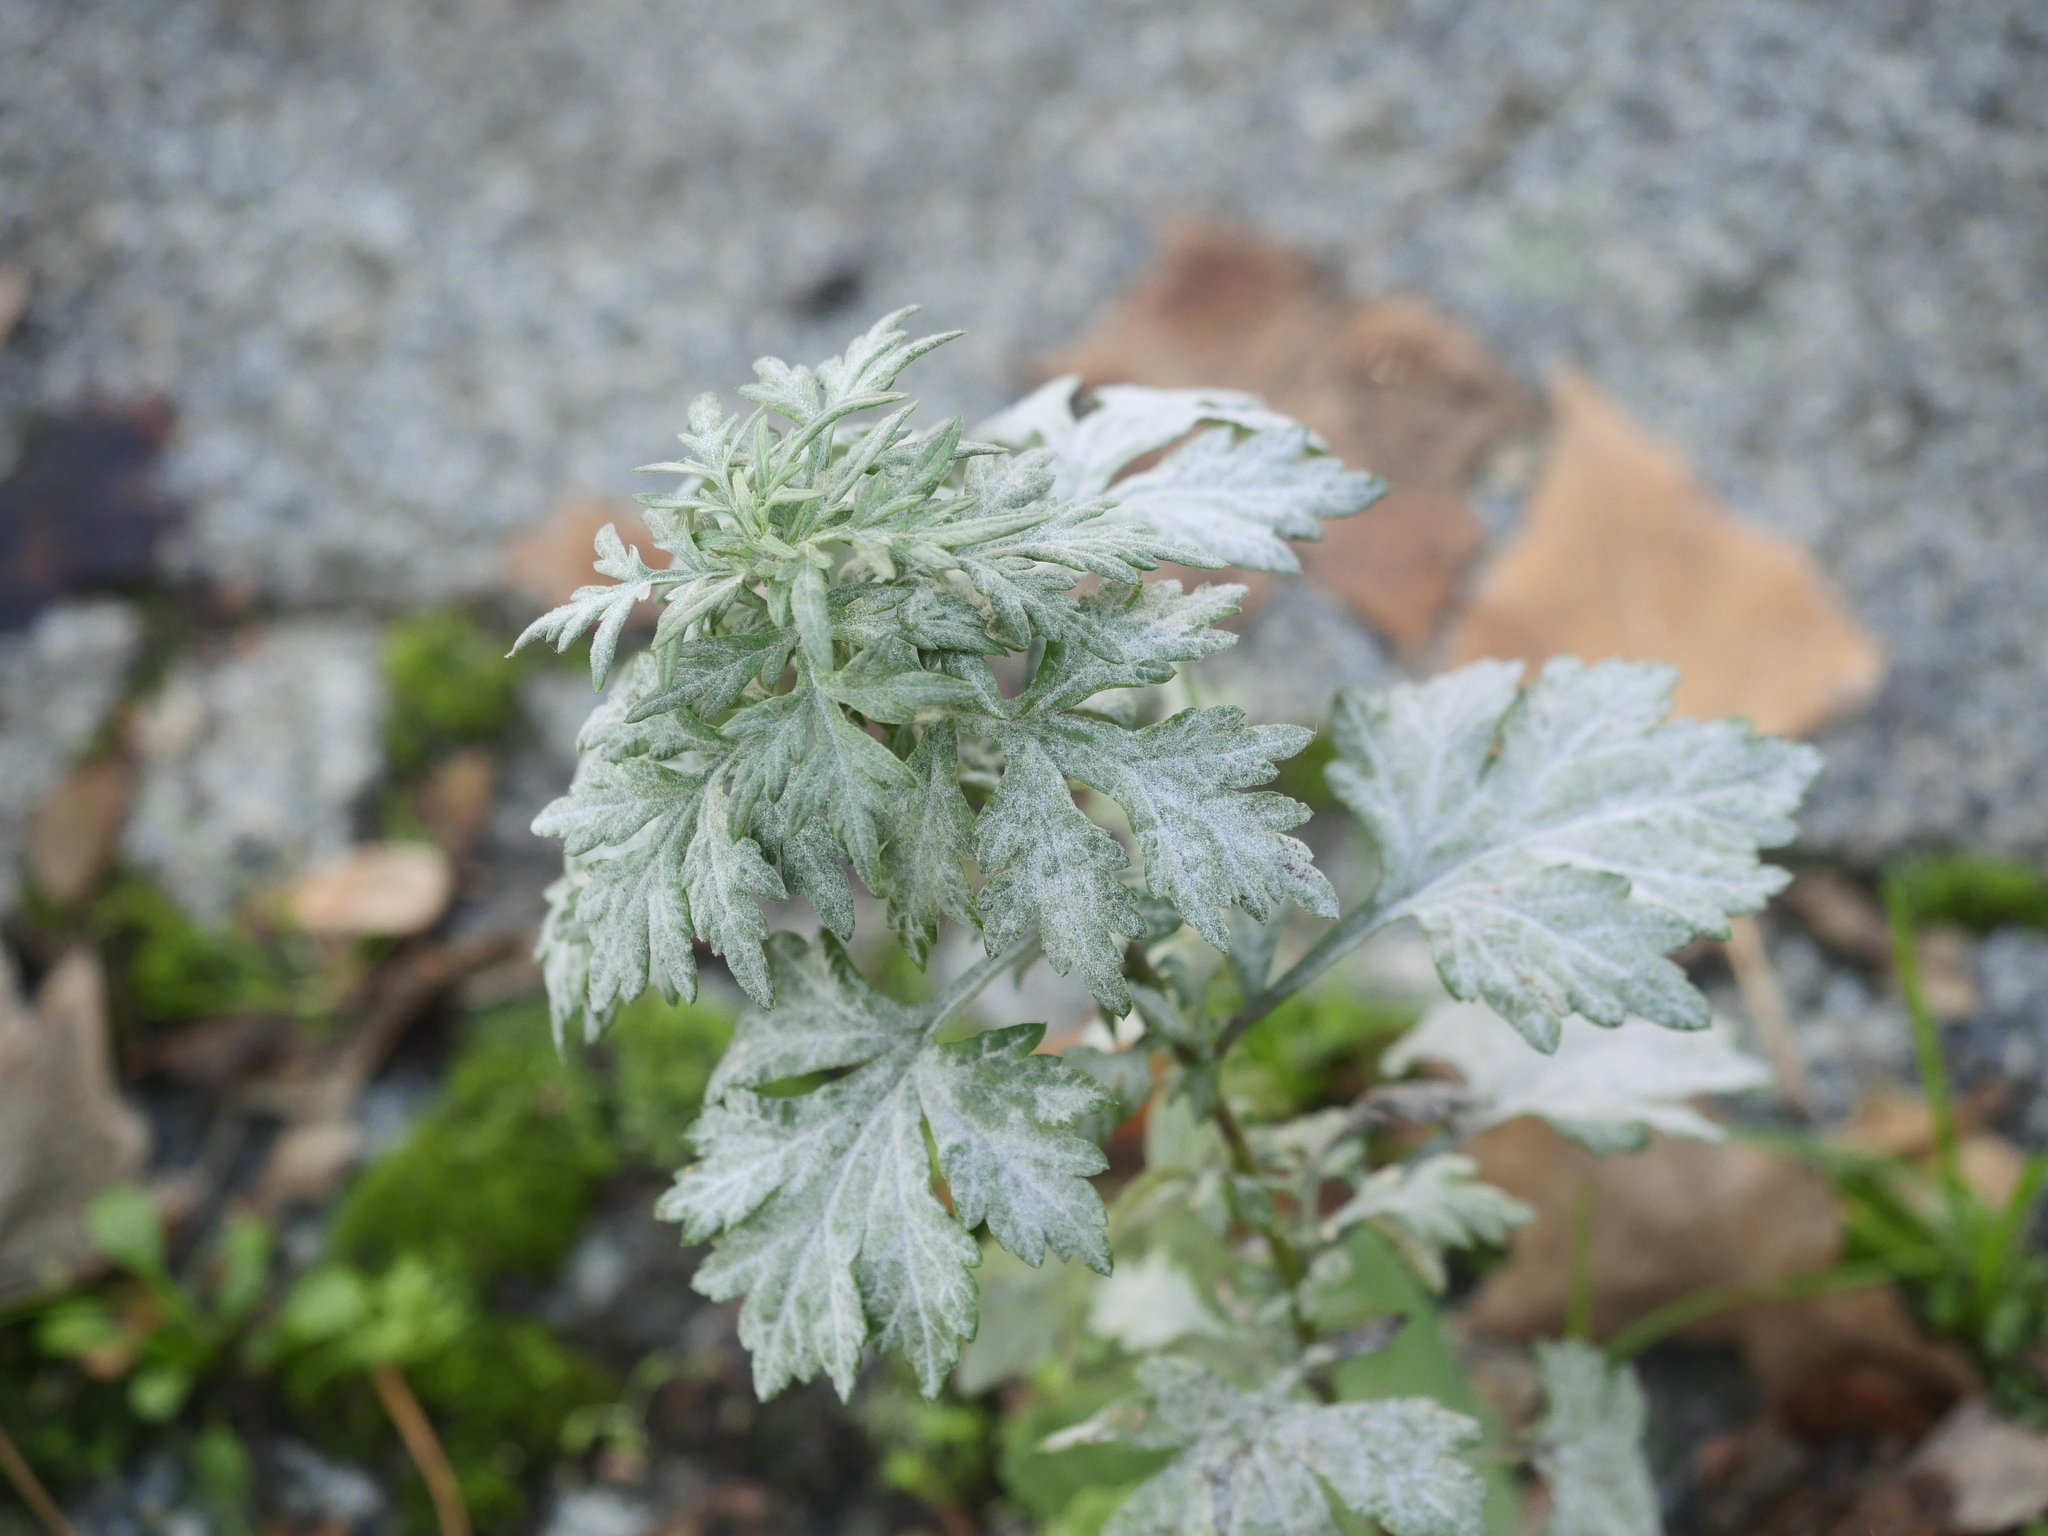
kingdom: Fungi
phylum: Ascomycota
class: Leotiomycetes
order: Helotiales
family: Erysiphaceae
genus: Golovinomyces
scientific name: Golovinomyces artemisiae
